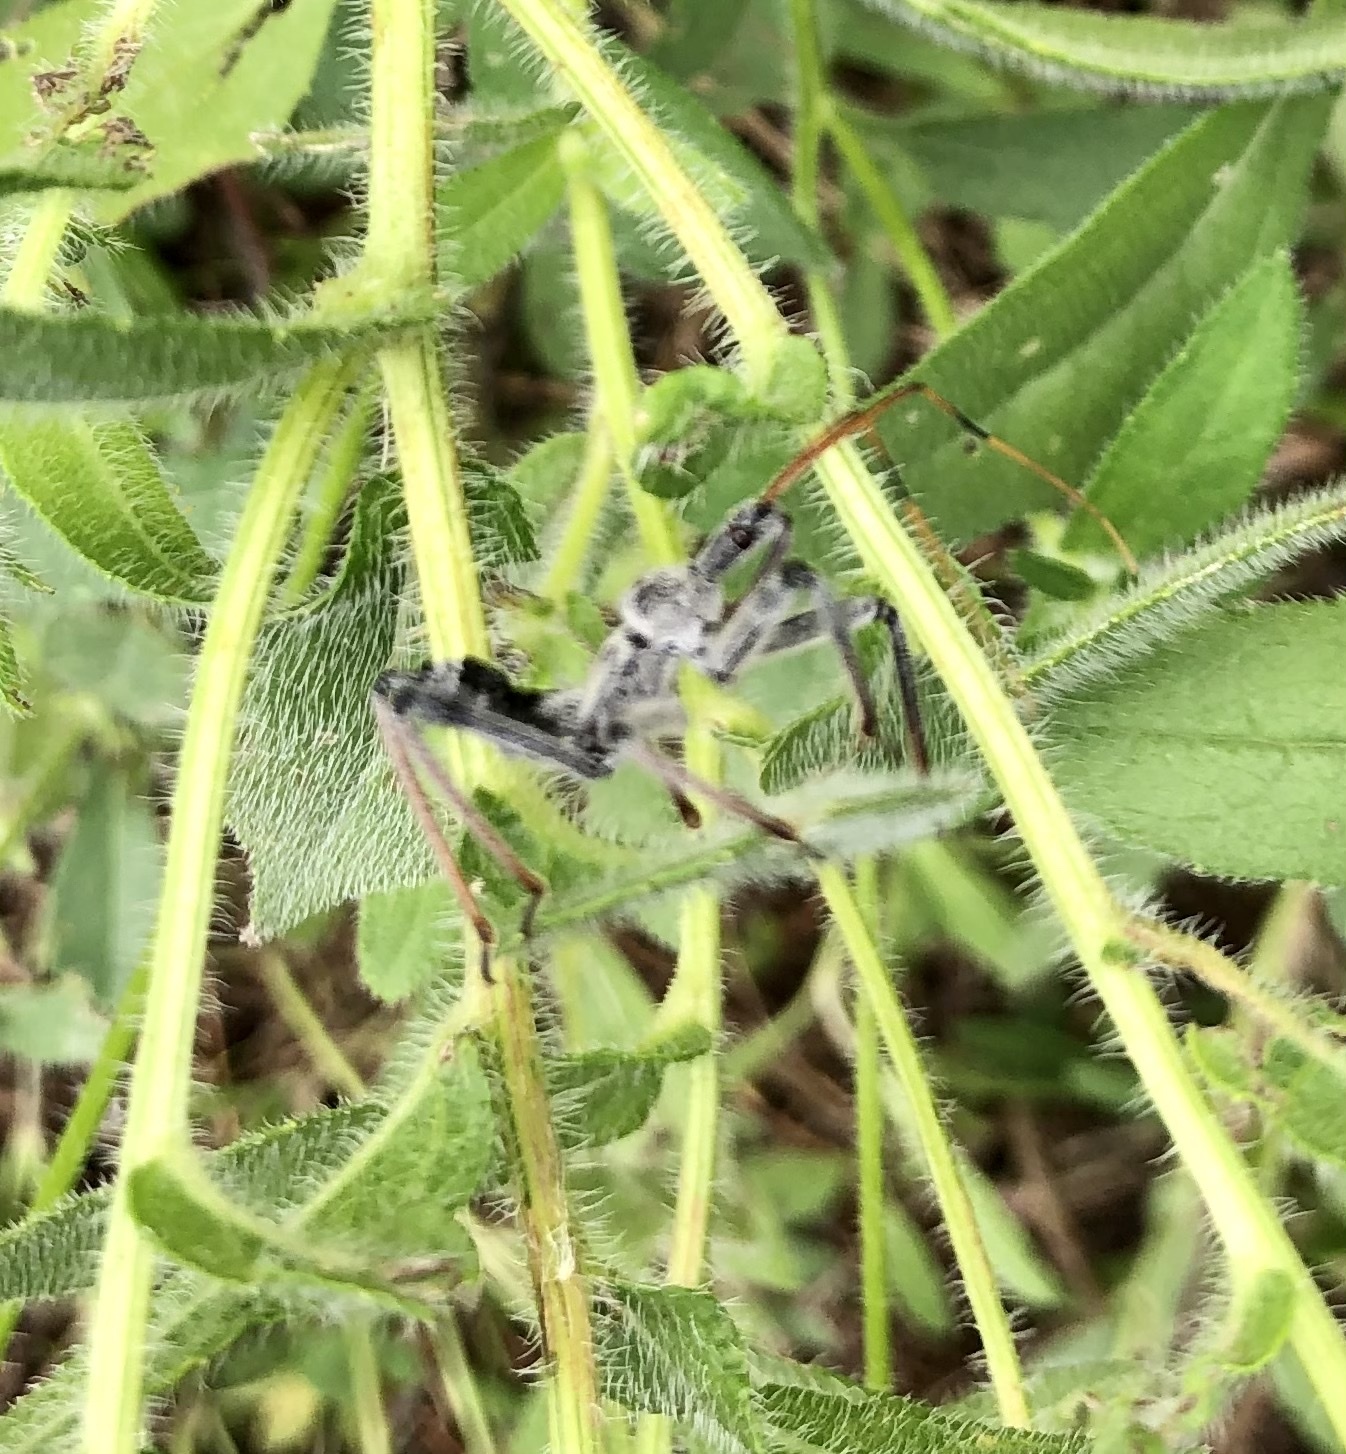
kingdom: Animalia
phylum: Arthropoda
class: Insecta
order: Hemiptera
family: Reduviidae
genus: Arilus
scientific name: Arilus cristatus
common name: North american wheel bug
